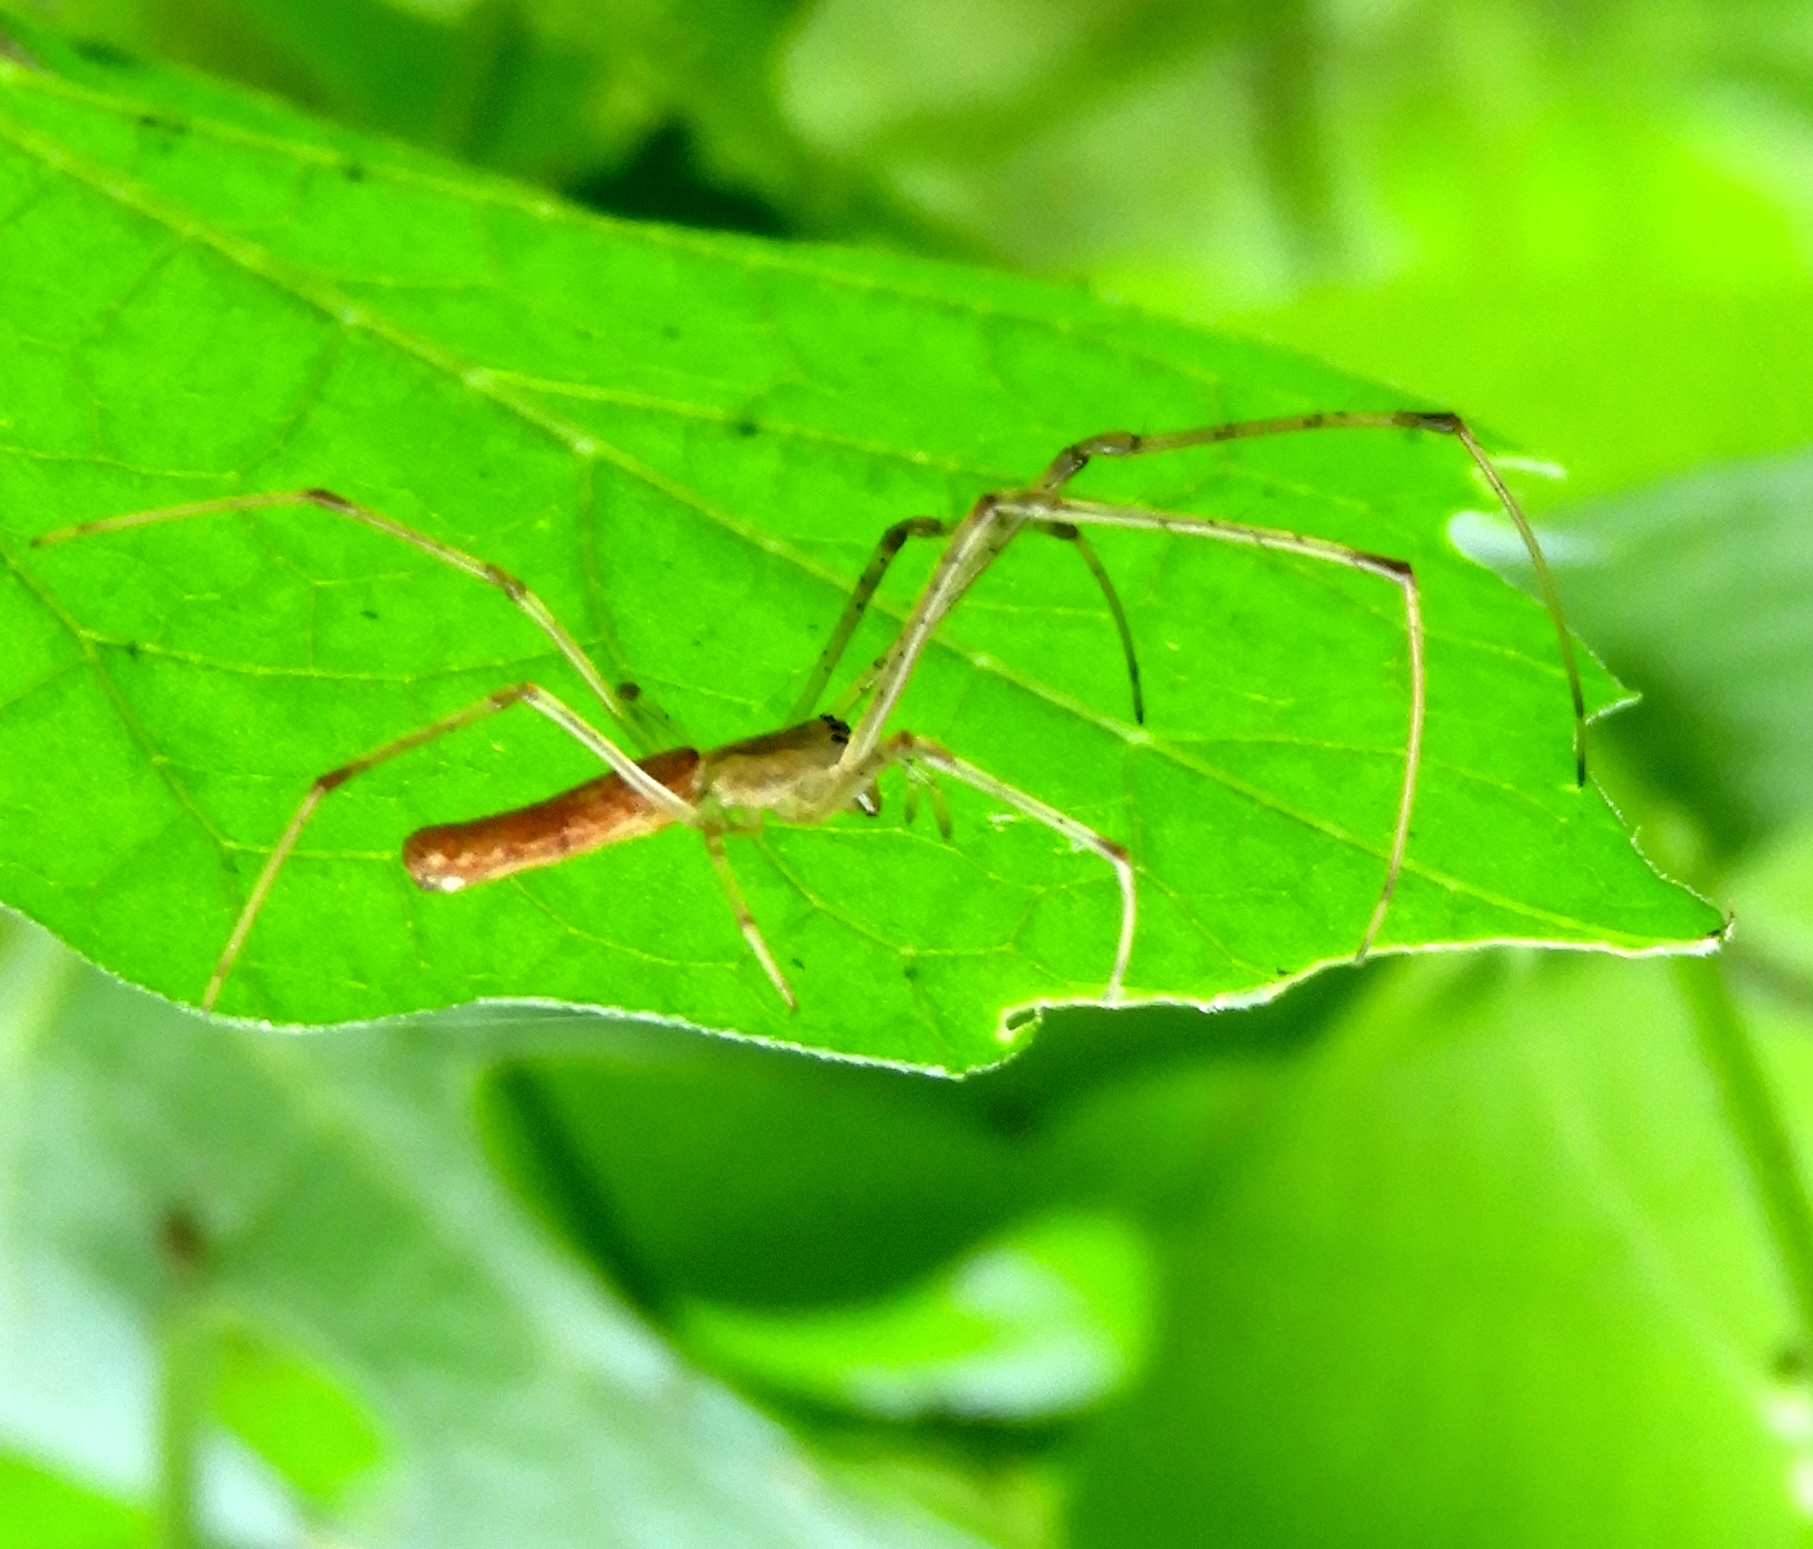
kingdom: Animalia
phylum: Arthropoda
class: Arachnida
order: Araneae
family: Tetragnathidae
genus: Tetragnatha
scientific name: Tetragnatha
